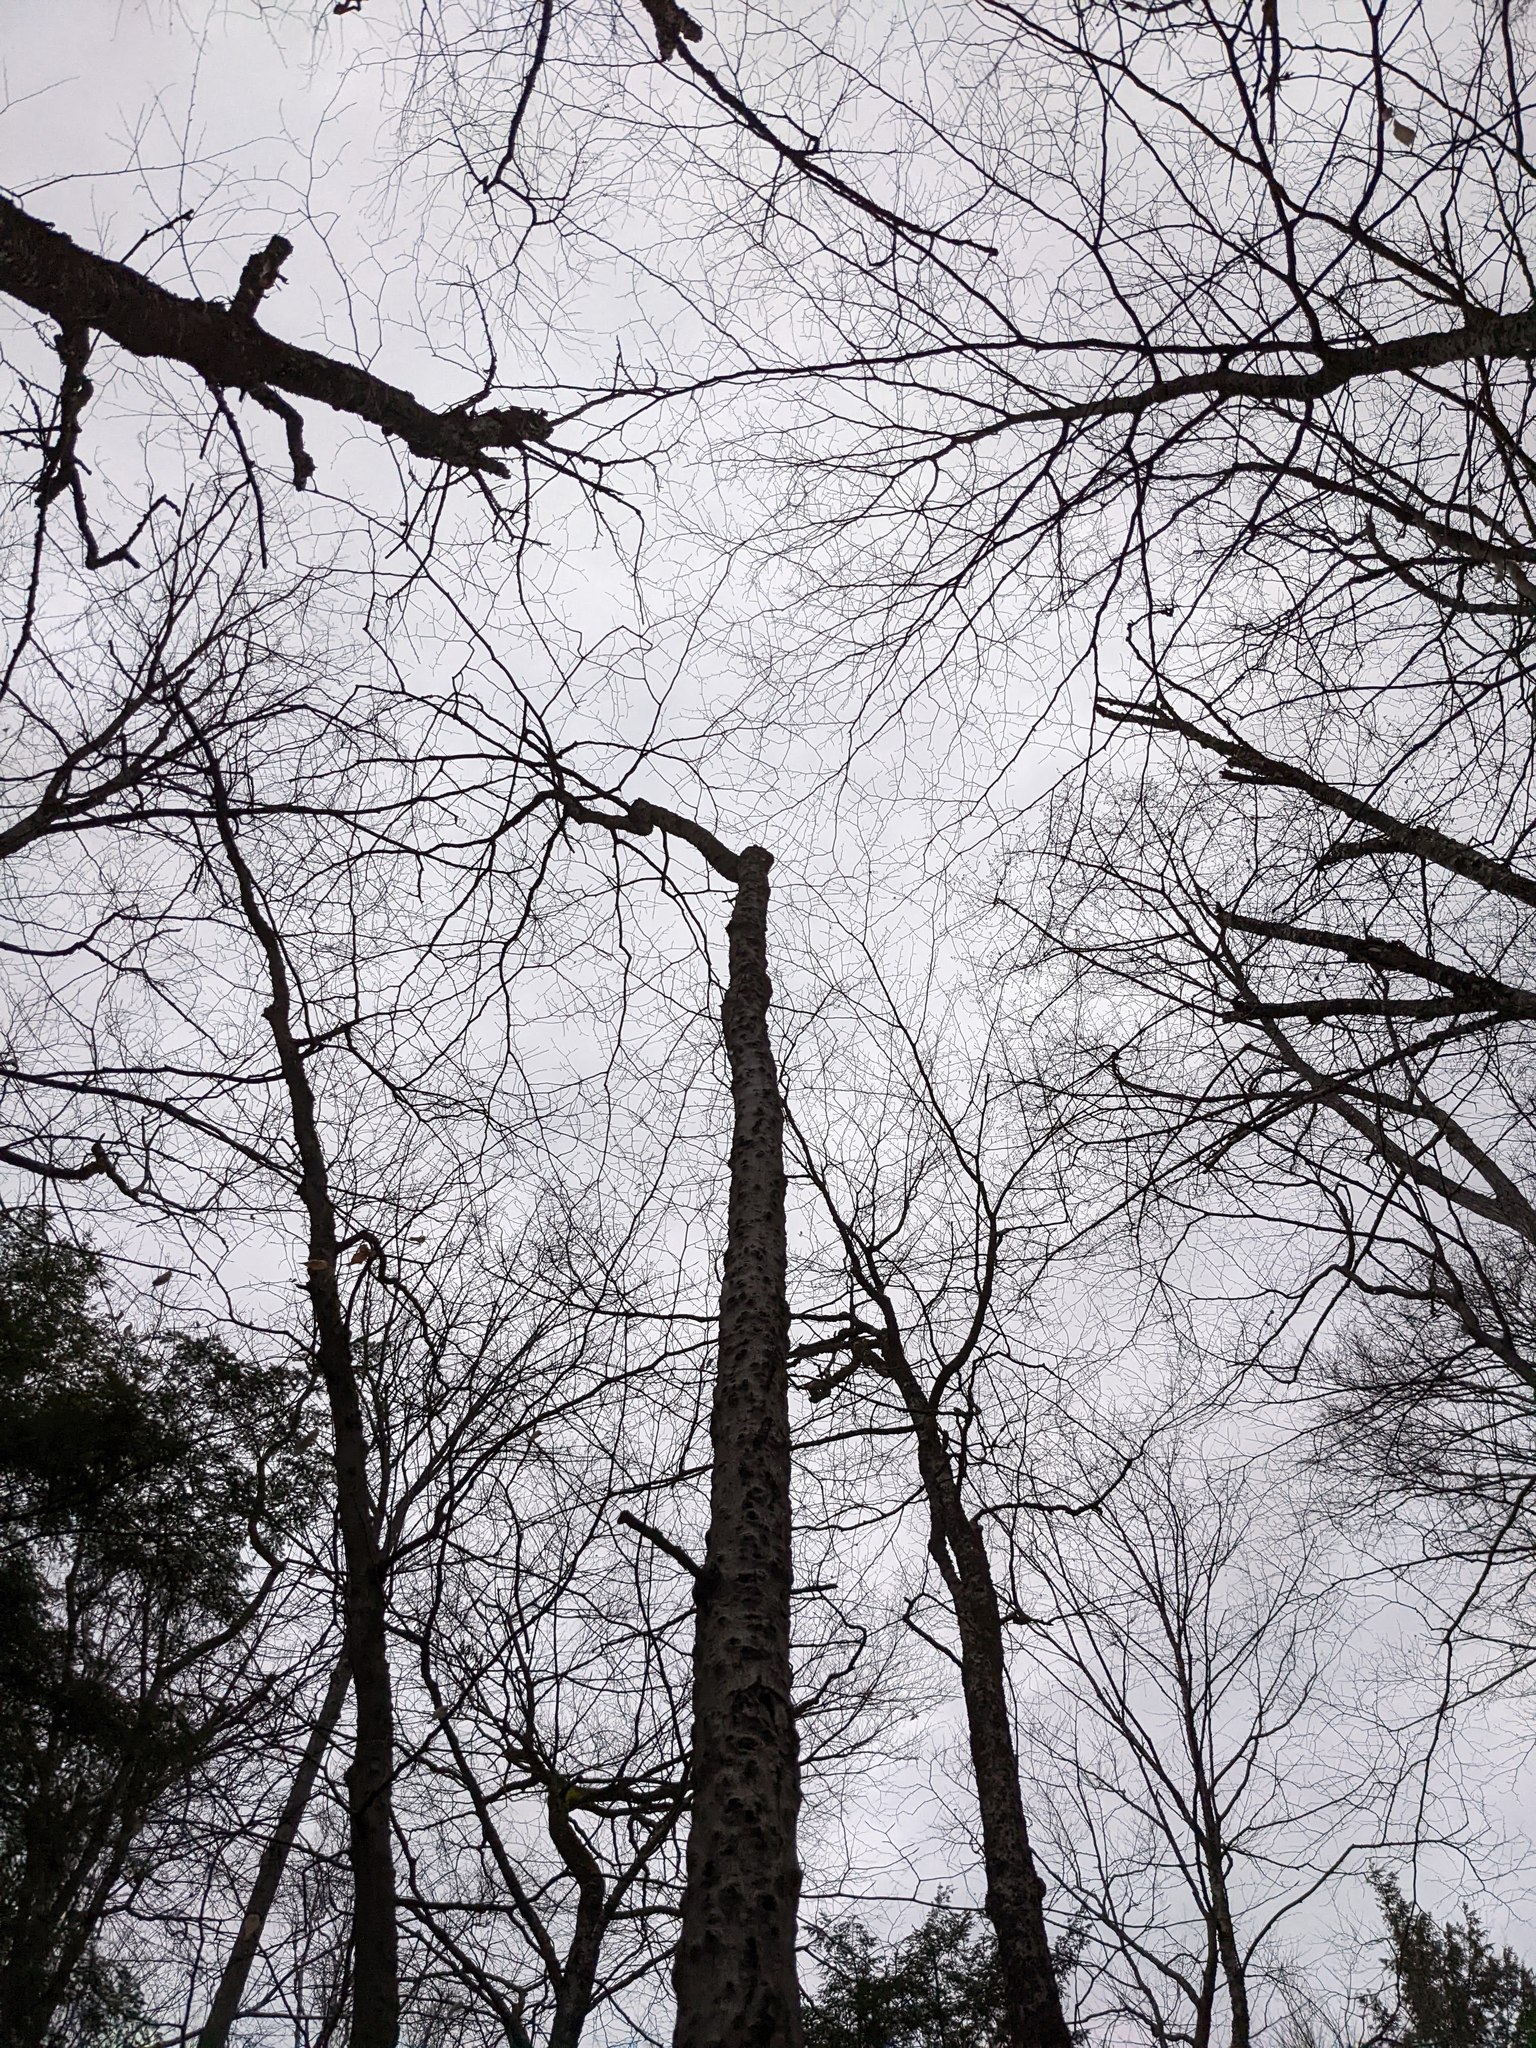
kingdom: Plantae
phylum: Tracheophyta
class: Magnoliopsida
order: Fagales
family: Fagaceae
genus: Fagus
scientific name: Fagus grandifolia
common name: American beech
